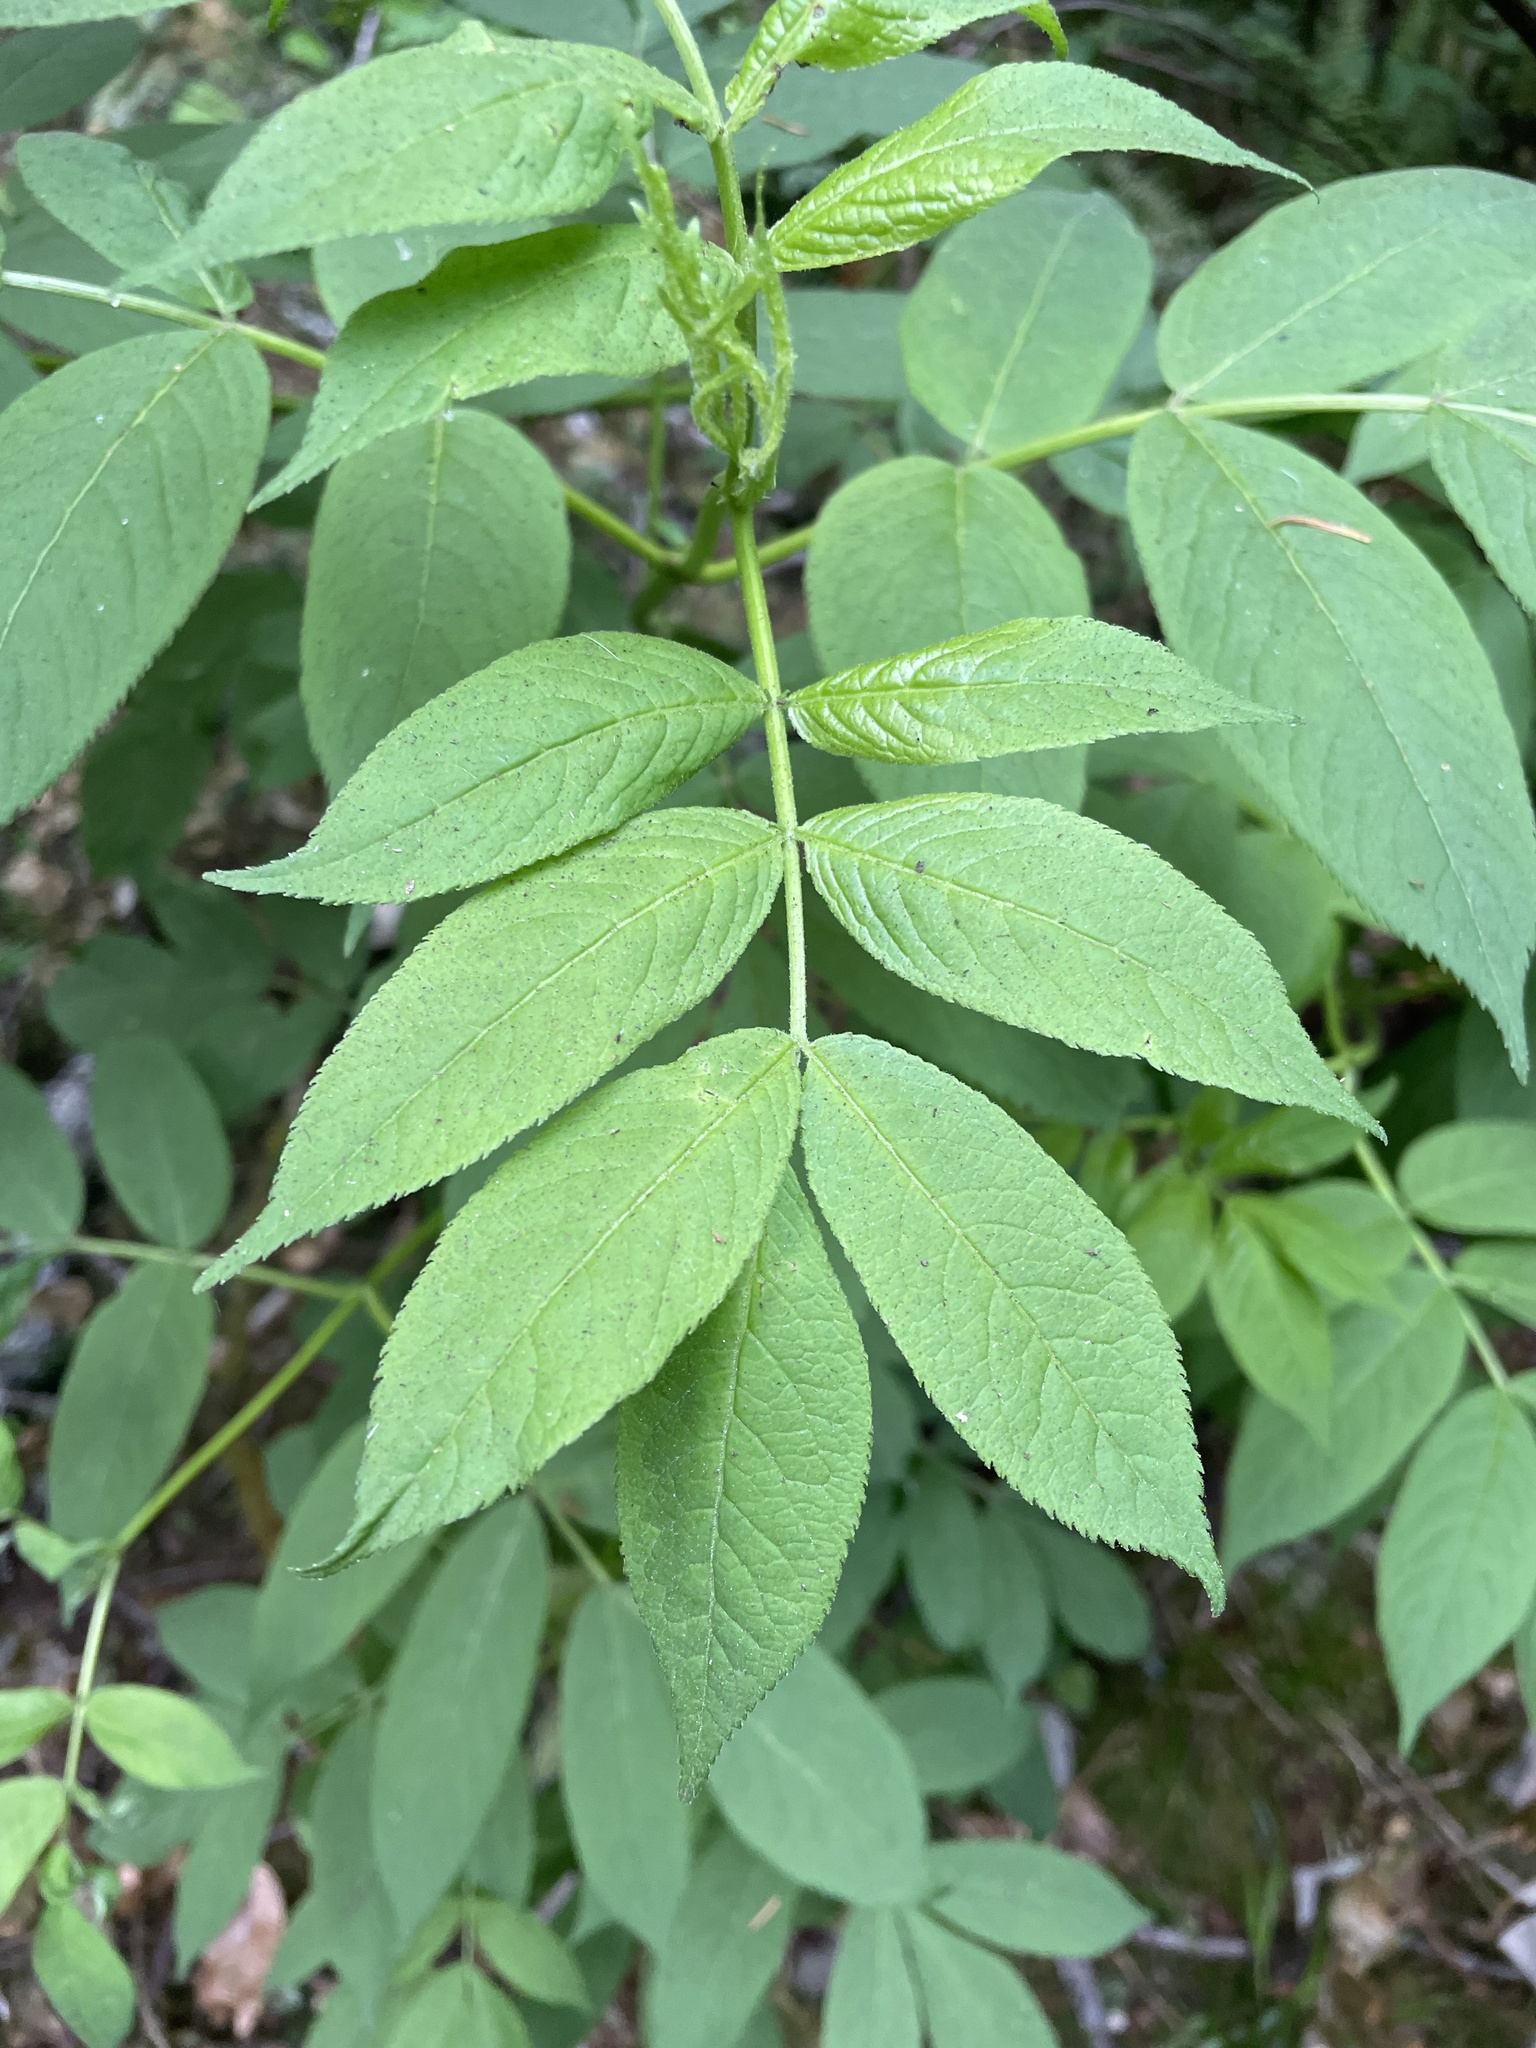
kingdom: Plantae
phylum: Tracheophyta
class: Magnoliopsida
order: Dipsacales
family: Viburnaceae
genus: Sambucus
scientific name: Sambucus racemosa
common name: Red-berried elder
